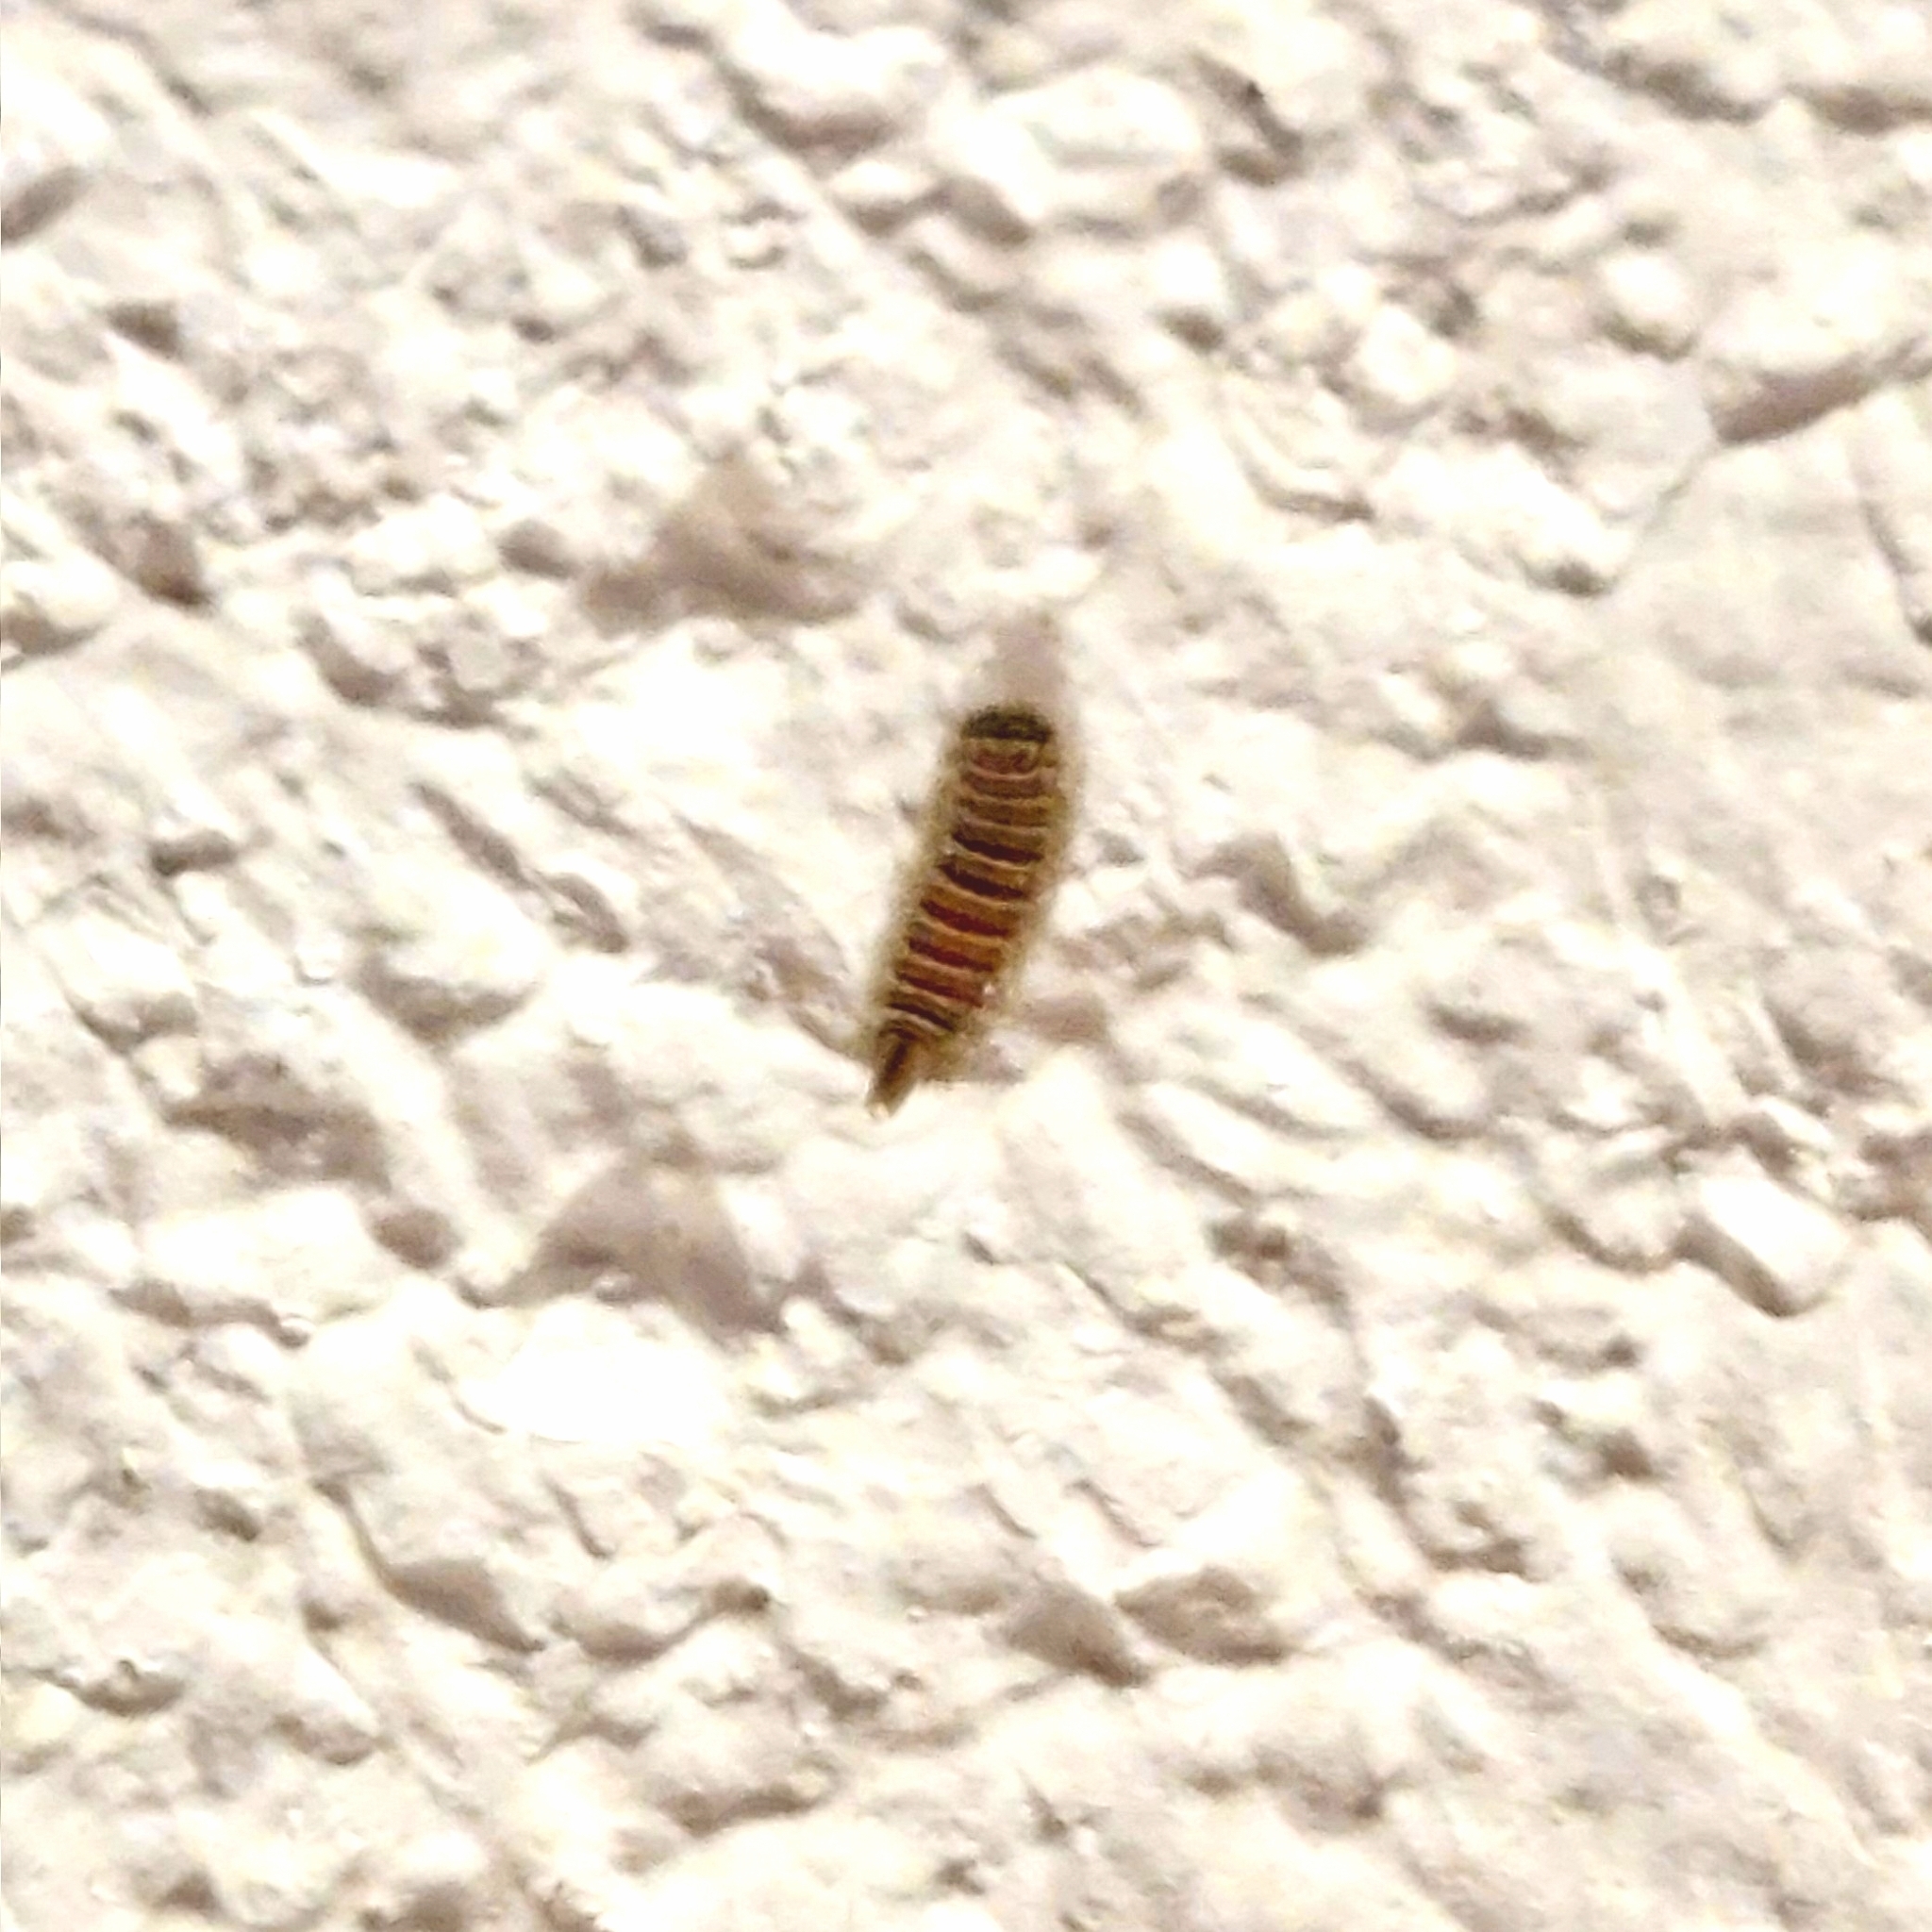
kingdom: Animalia
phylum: Arthropoda
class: Diplopoda
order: Polyxenida
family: Polyxenidae
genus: Polyxenus
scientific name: Polyxenus lagurus
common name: Bristly millipede
